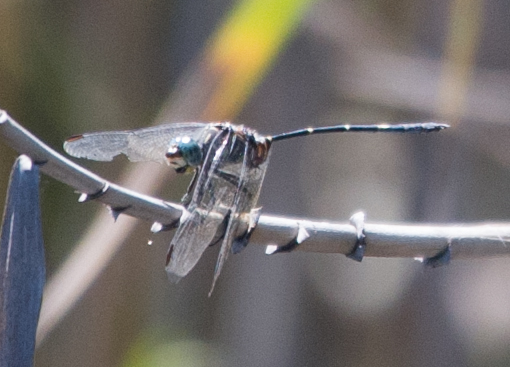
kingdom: Animalia
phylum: Arthropoda
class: Insecta
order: Odonata
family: Libellulidae
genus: Olpogastra
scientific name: Olpogastra lugubris
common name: Bottletail
